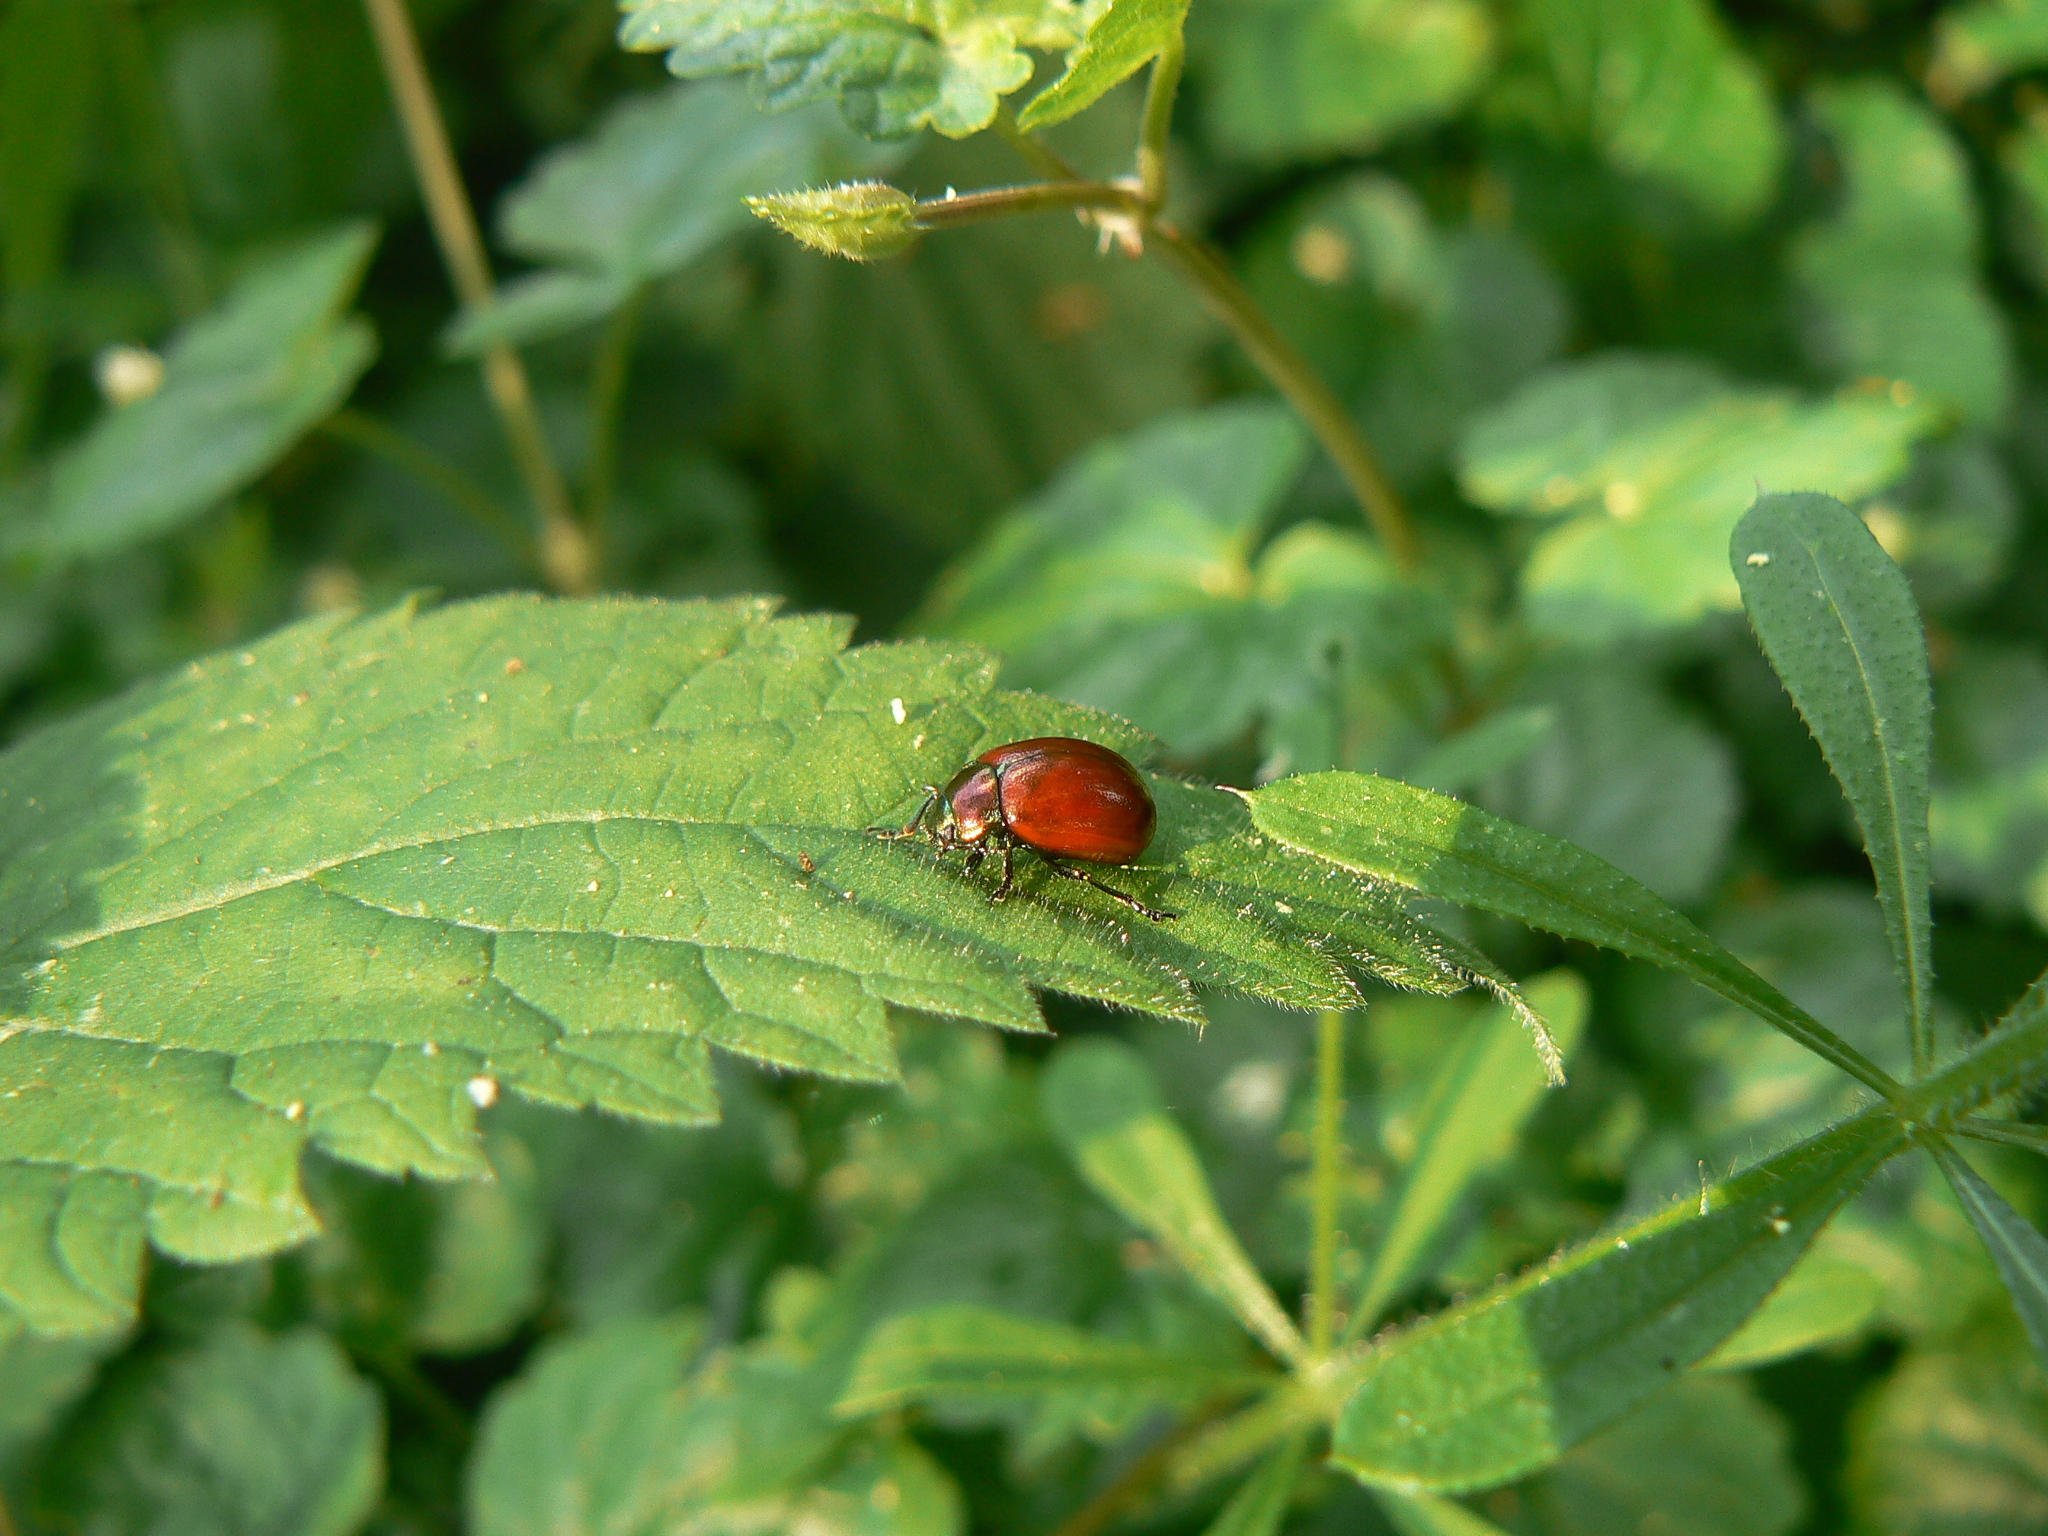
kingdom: Animalia
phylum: Arthropoda
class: Insecta
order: Coleoptera
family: Chrysomelidae
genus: Chrysomela
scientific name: Chrysomela polita
